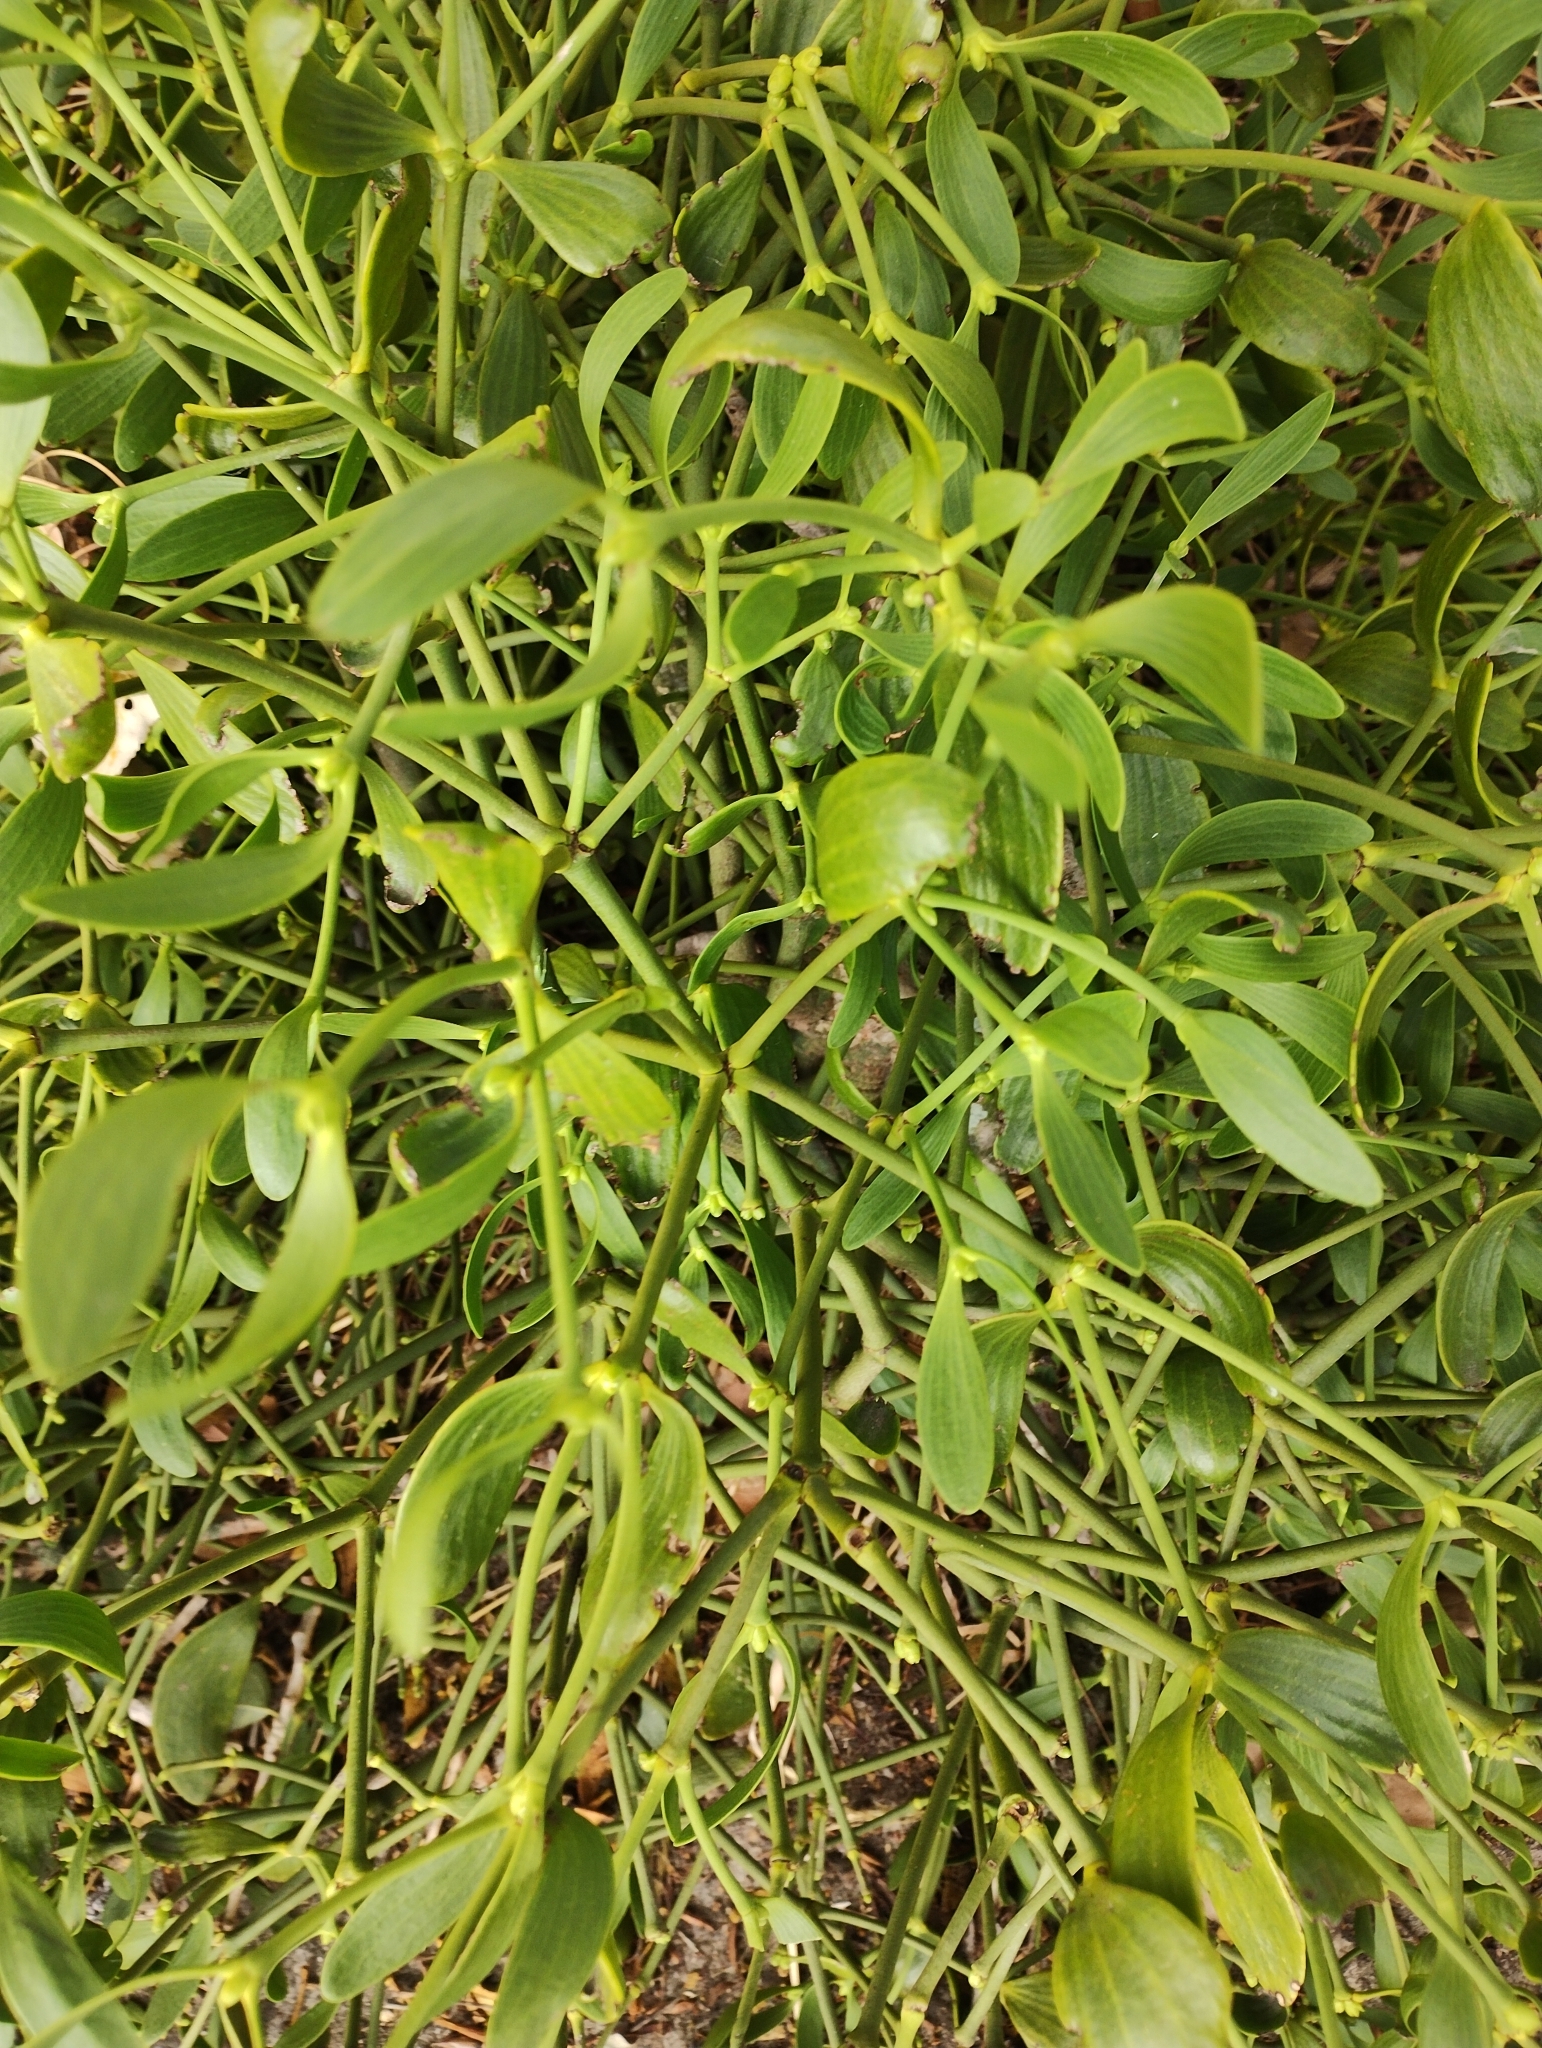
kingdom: Plantae
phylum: Tracheophyta
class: Magnoliopsida
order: Santalales
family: Viscaceae
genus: Viscum
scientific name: Viscum album
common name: Mistletoe
